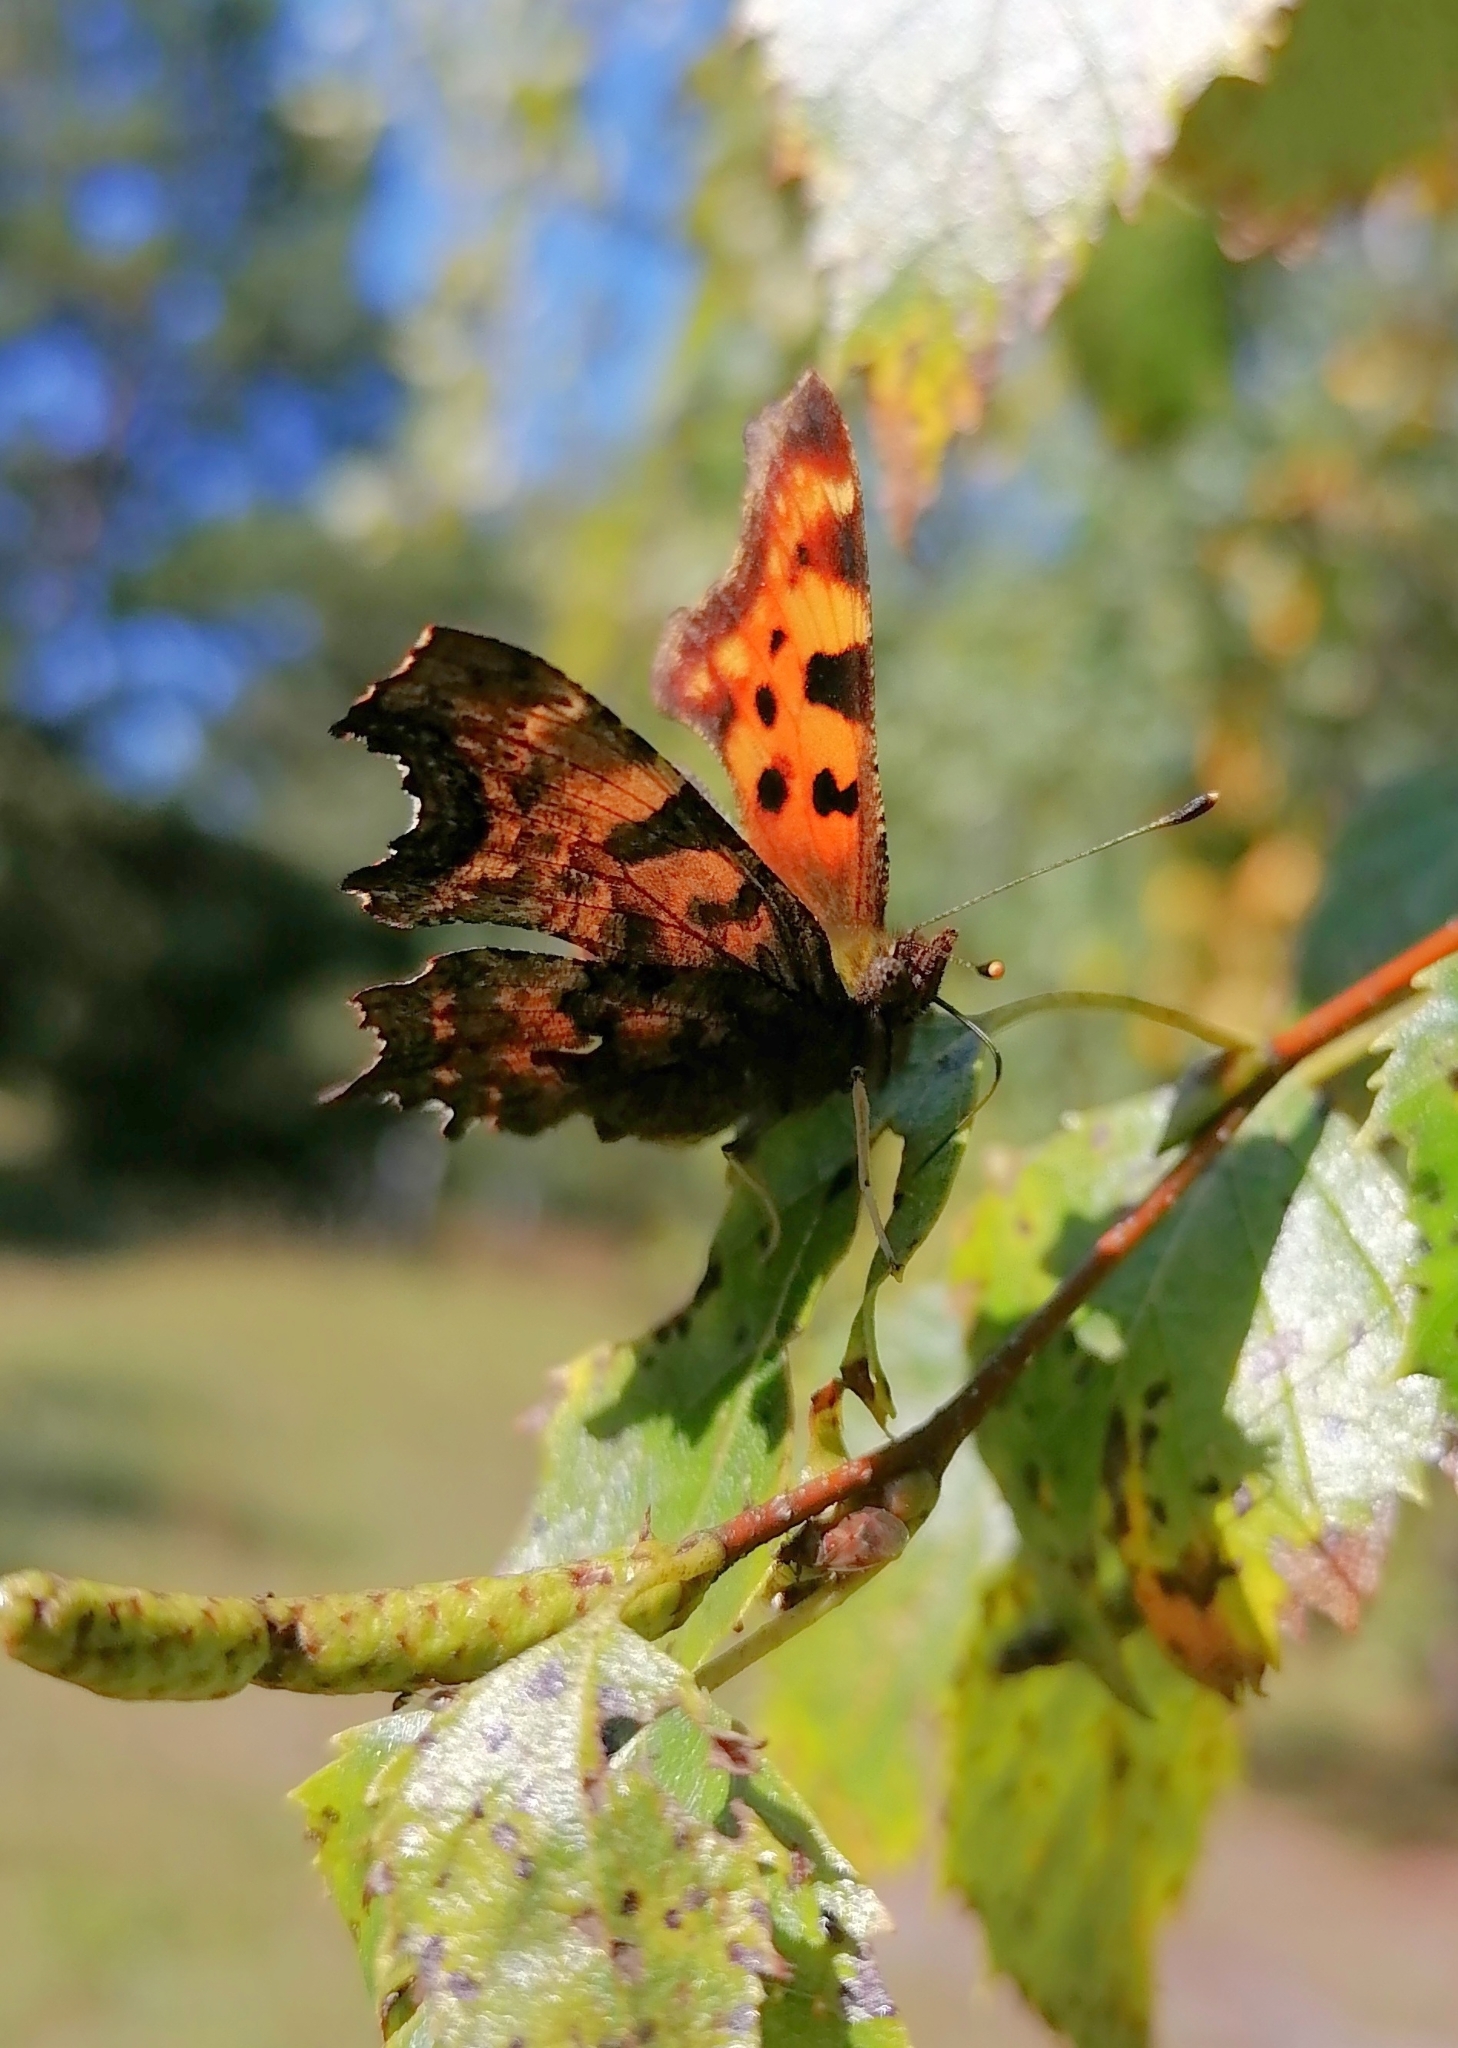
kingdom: Animalia
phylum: Arthropoda
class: Insecta
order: Lepidoptera
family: Nymphalidae
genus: Polygonia
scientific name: Polygonia c-album
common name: Comma
